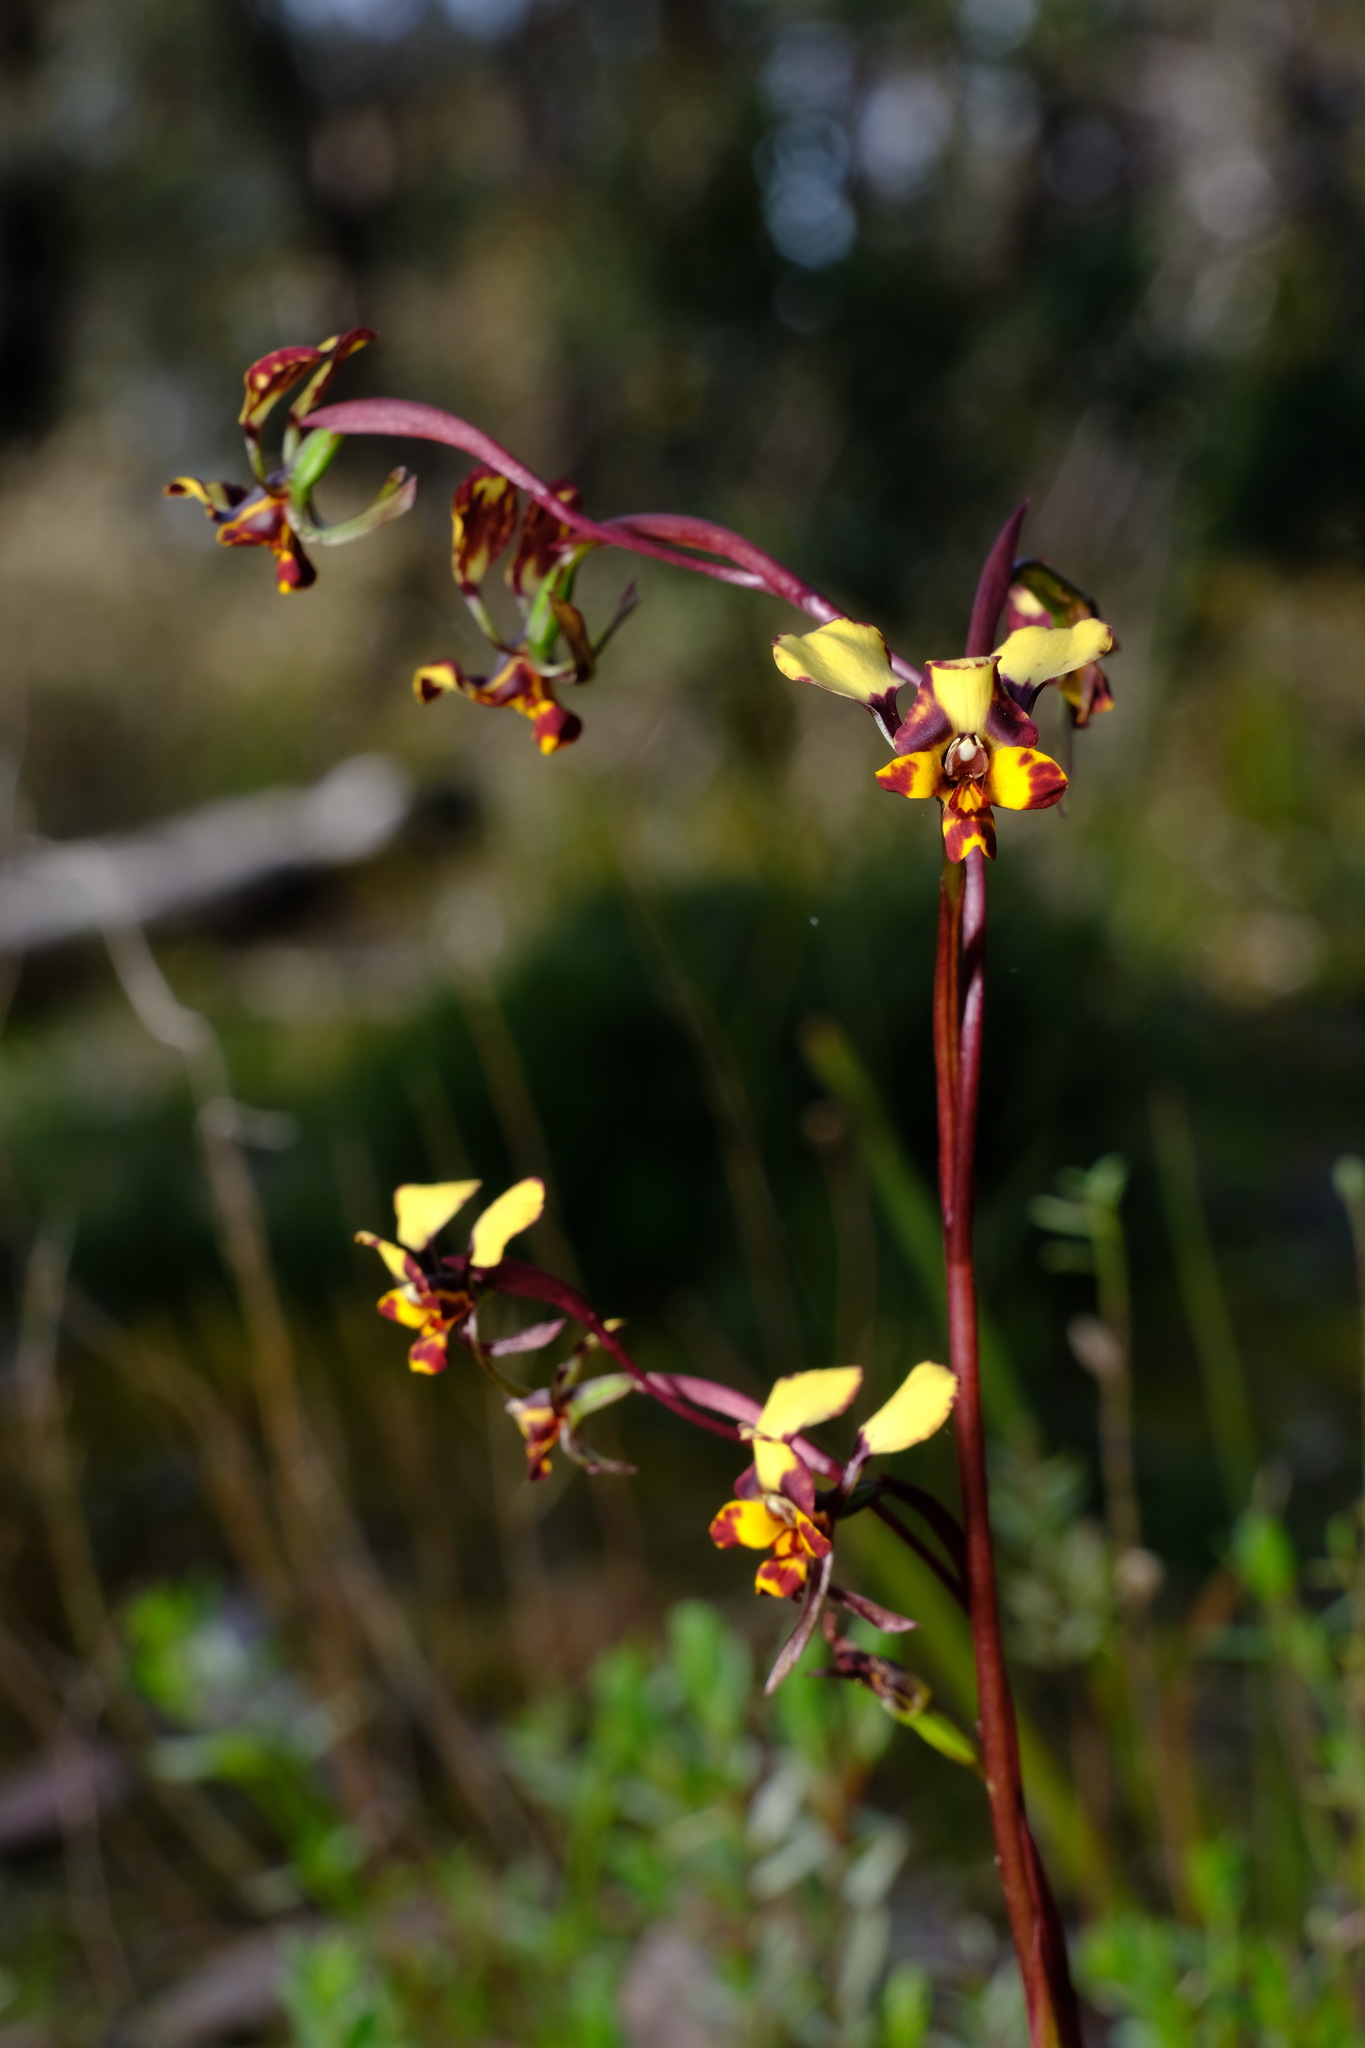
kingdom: Plantae
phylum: Tracheophyta
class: Liliopsida
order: Asparagales
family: Orchidaceae
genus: Diuris
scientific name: Diuris pardina
